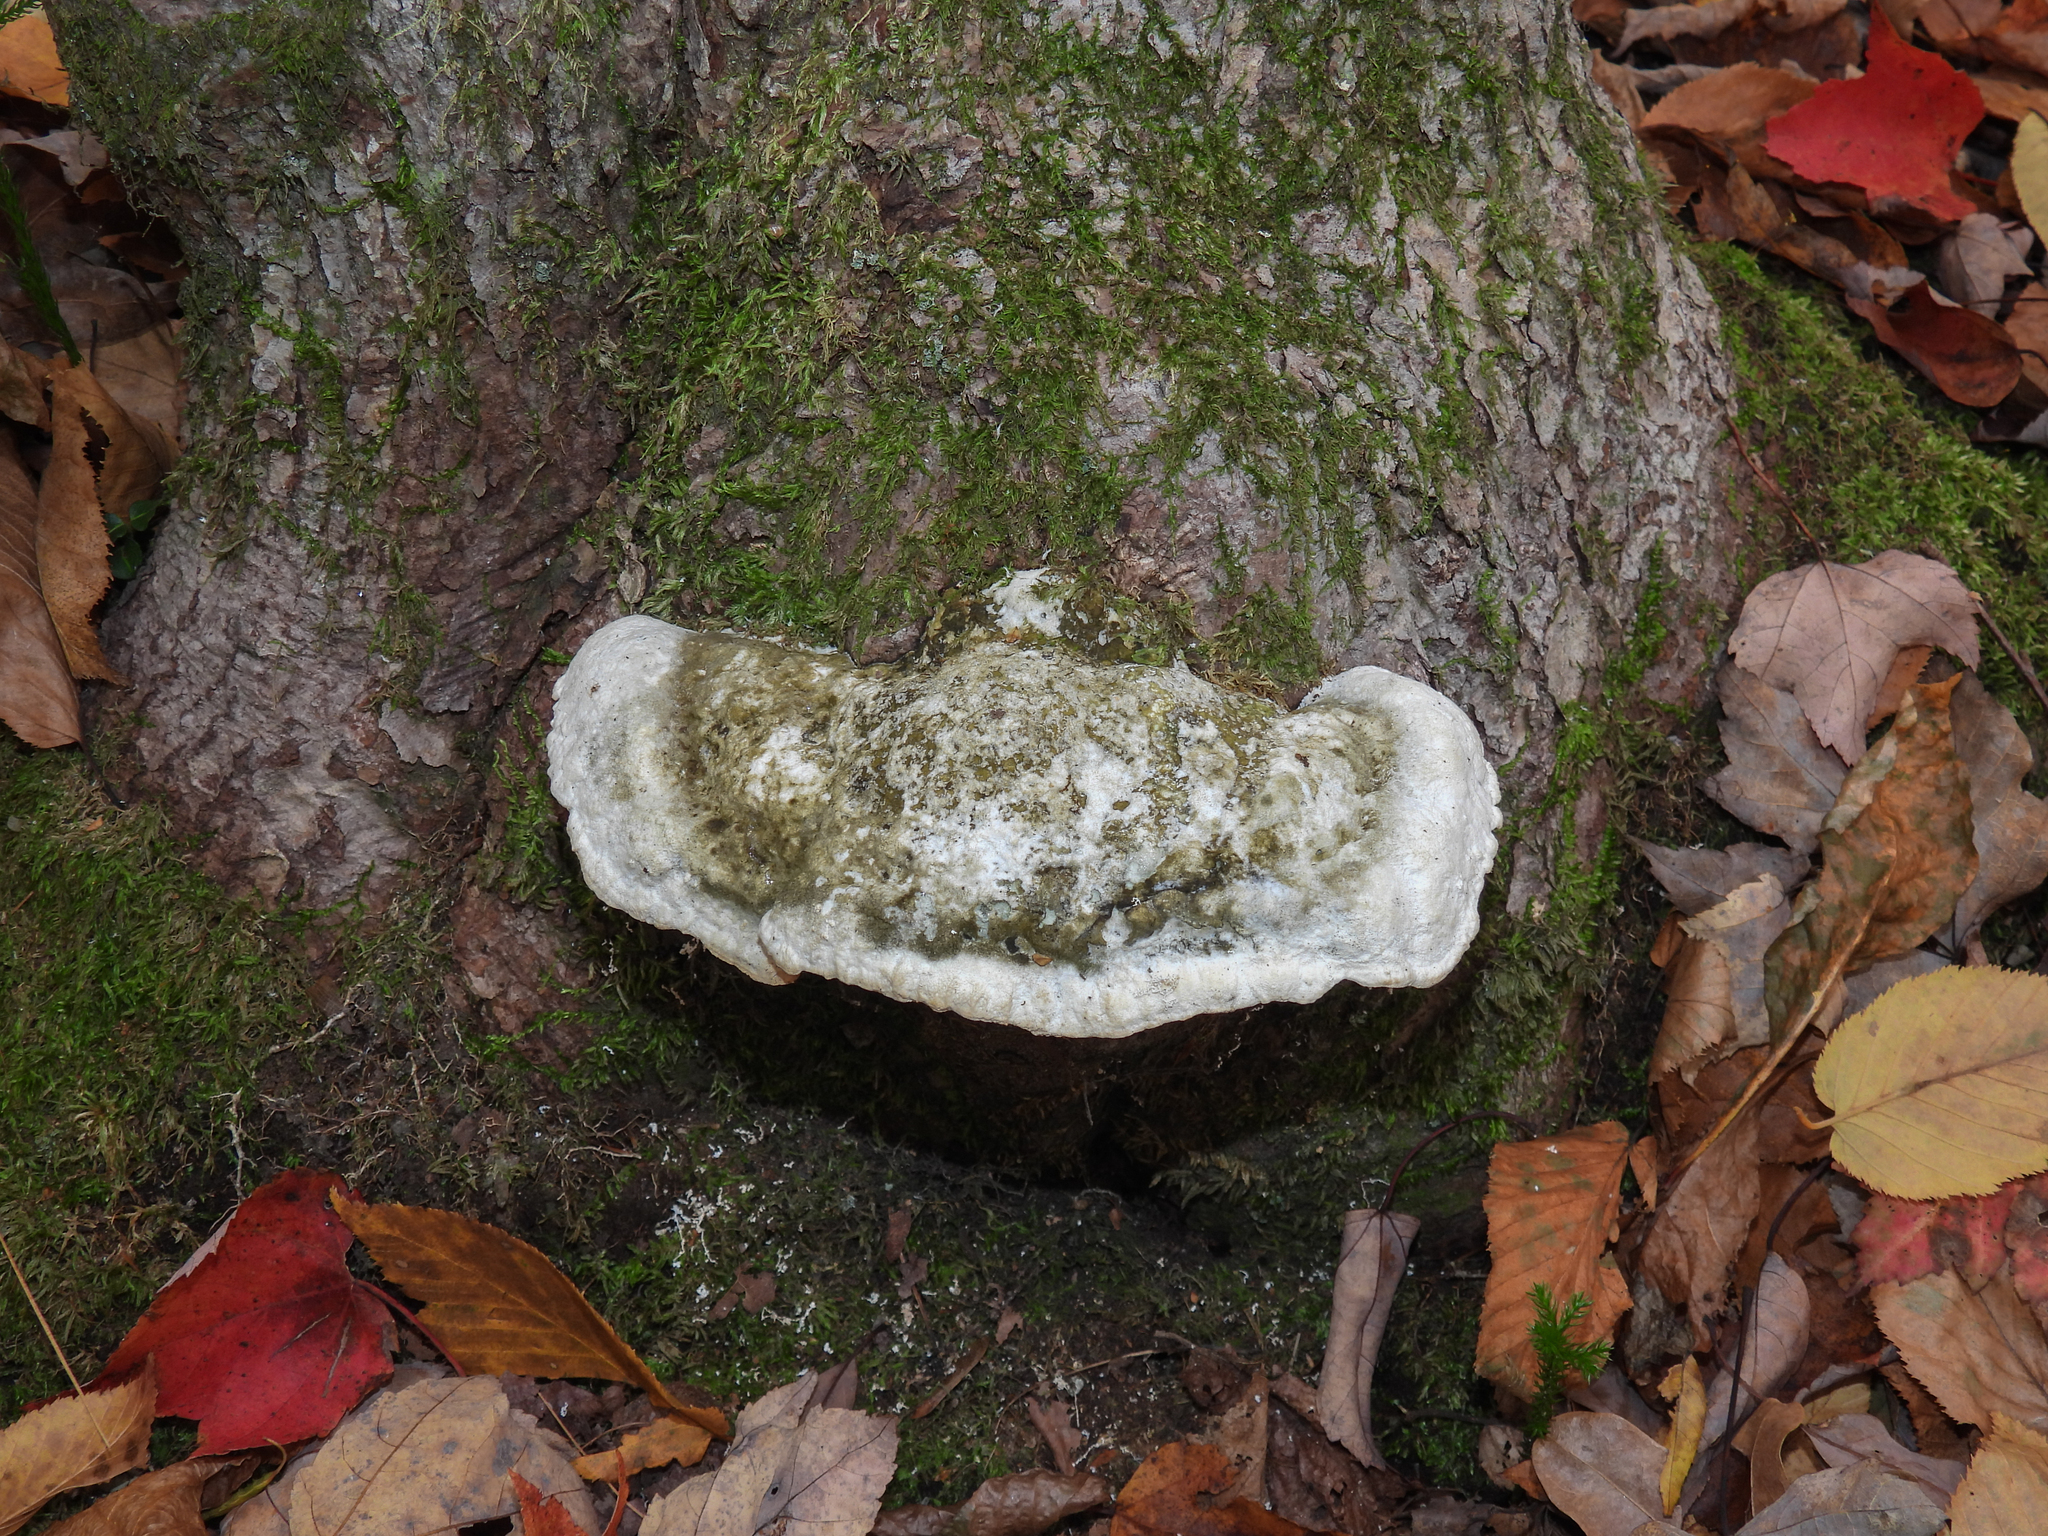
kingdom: Fungi
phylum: Basidiomycota
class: Agaricomycetes
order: Hymenochaetales
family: Oxyporaceae
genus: Oxyporus
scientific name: Oxyporus populinus
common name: Poplar bracket
